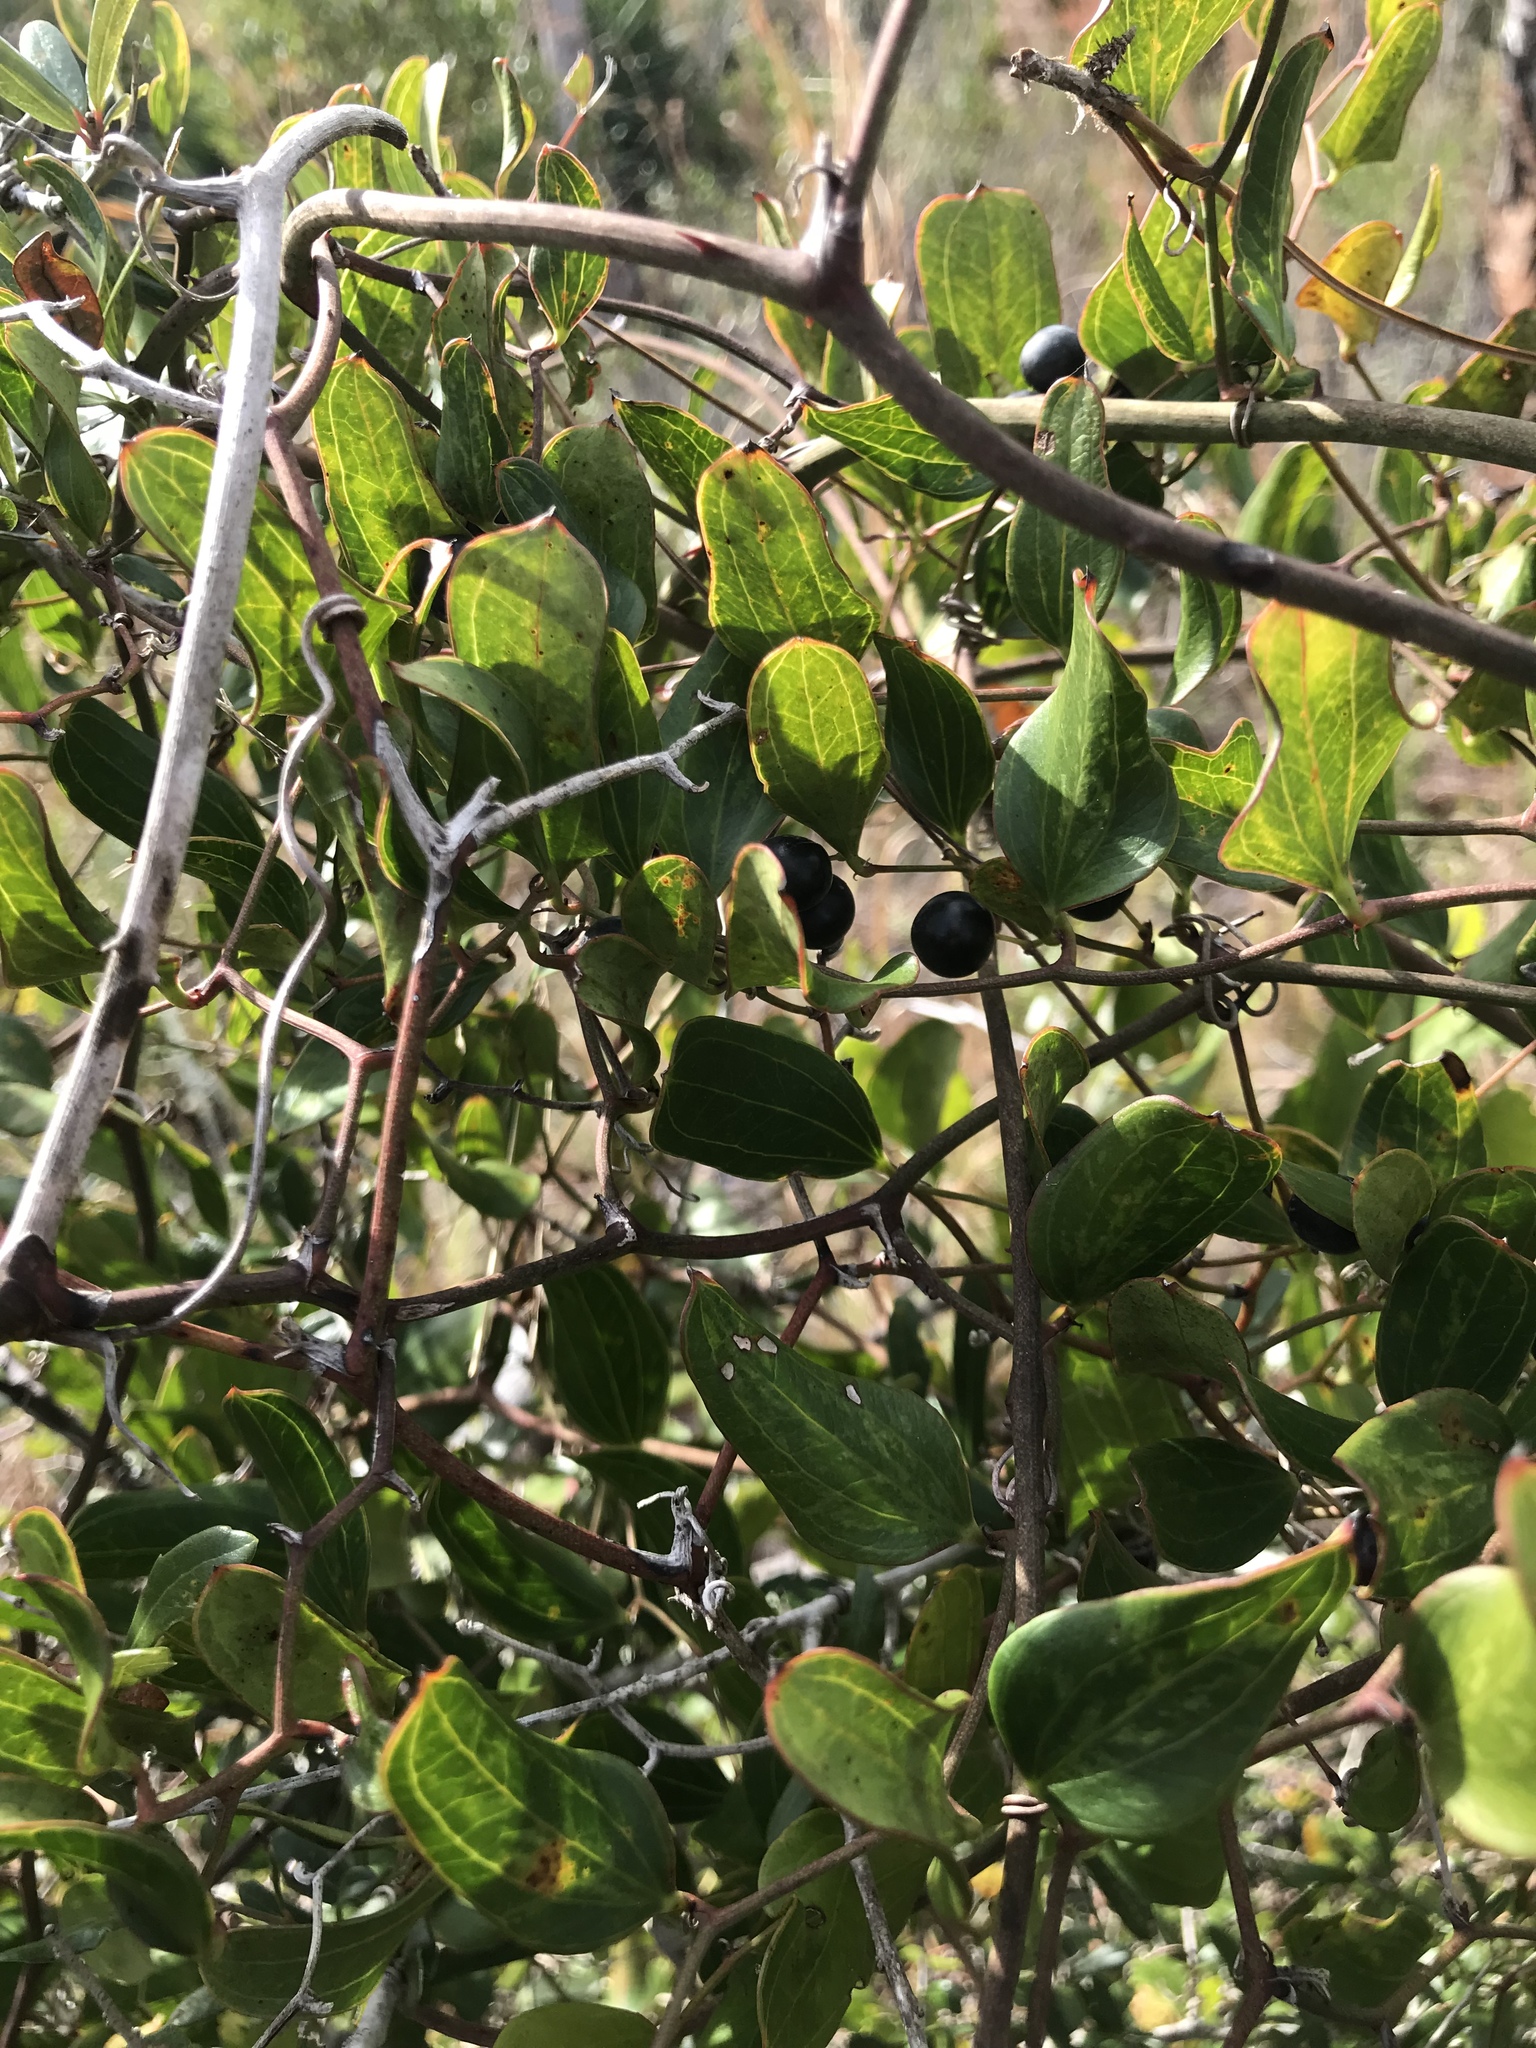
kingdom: Plantae
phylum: Tracheophyta
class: Liliopsida
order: Liliales
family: Smilacaceae
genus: Smilax
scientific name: Smilax auriculata
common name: Wild bamboo
